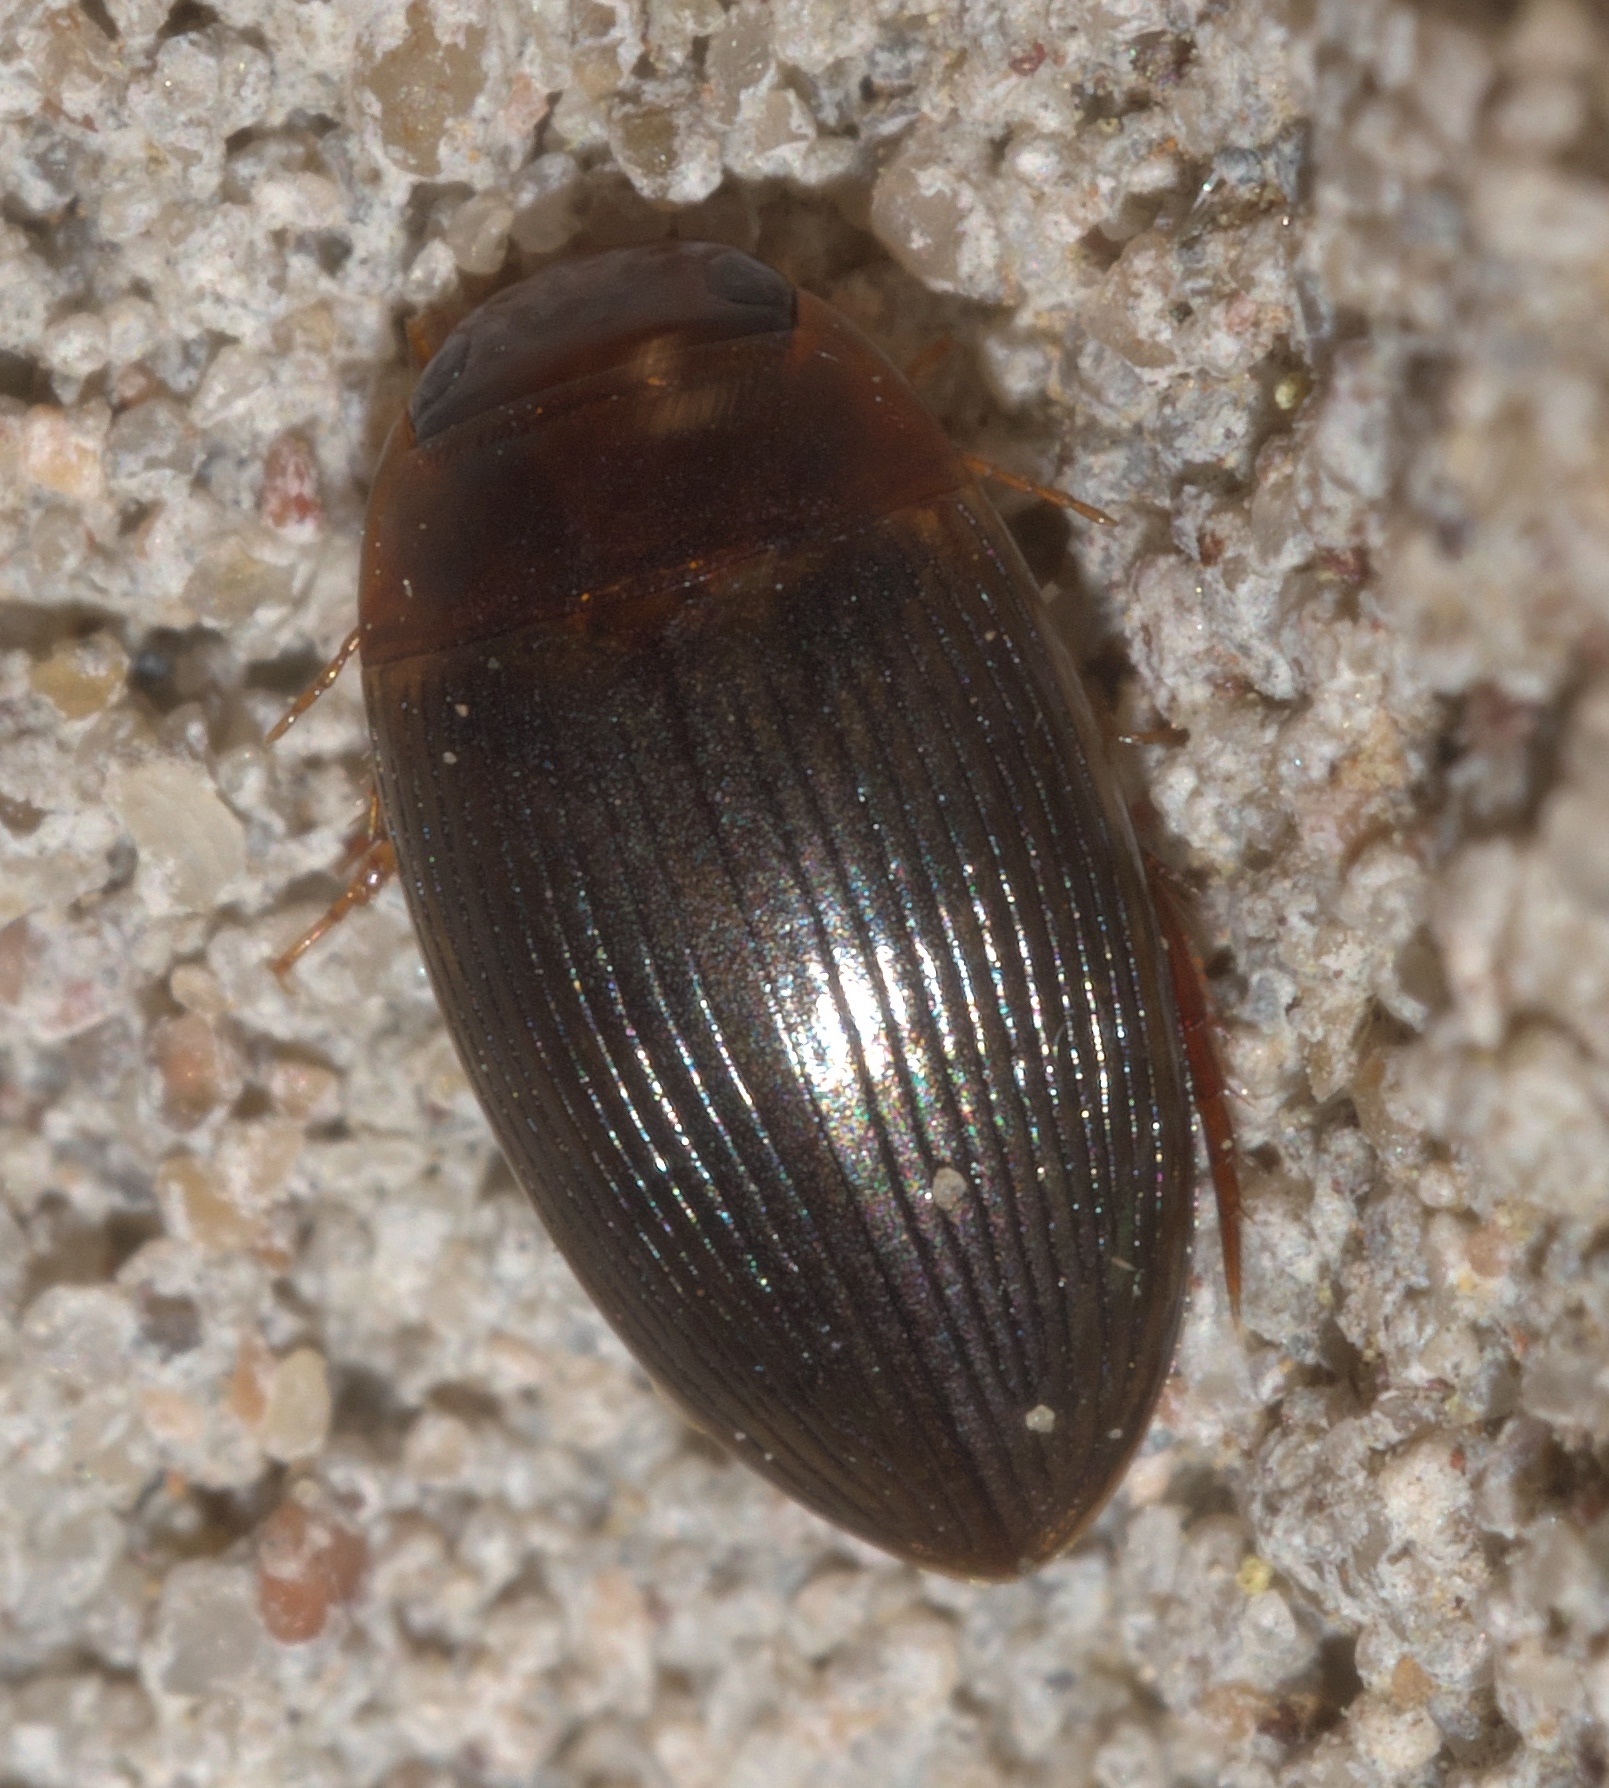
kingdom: Animalia
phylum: Arthropoda
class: Insecta
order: Coleoptera
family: Dytiscidae
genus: Copelatus
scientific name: Copelatus glyphicus
